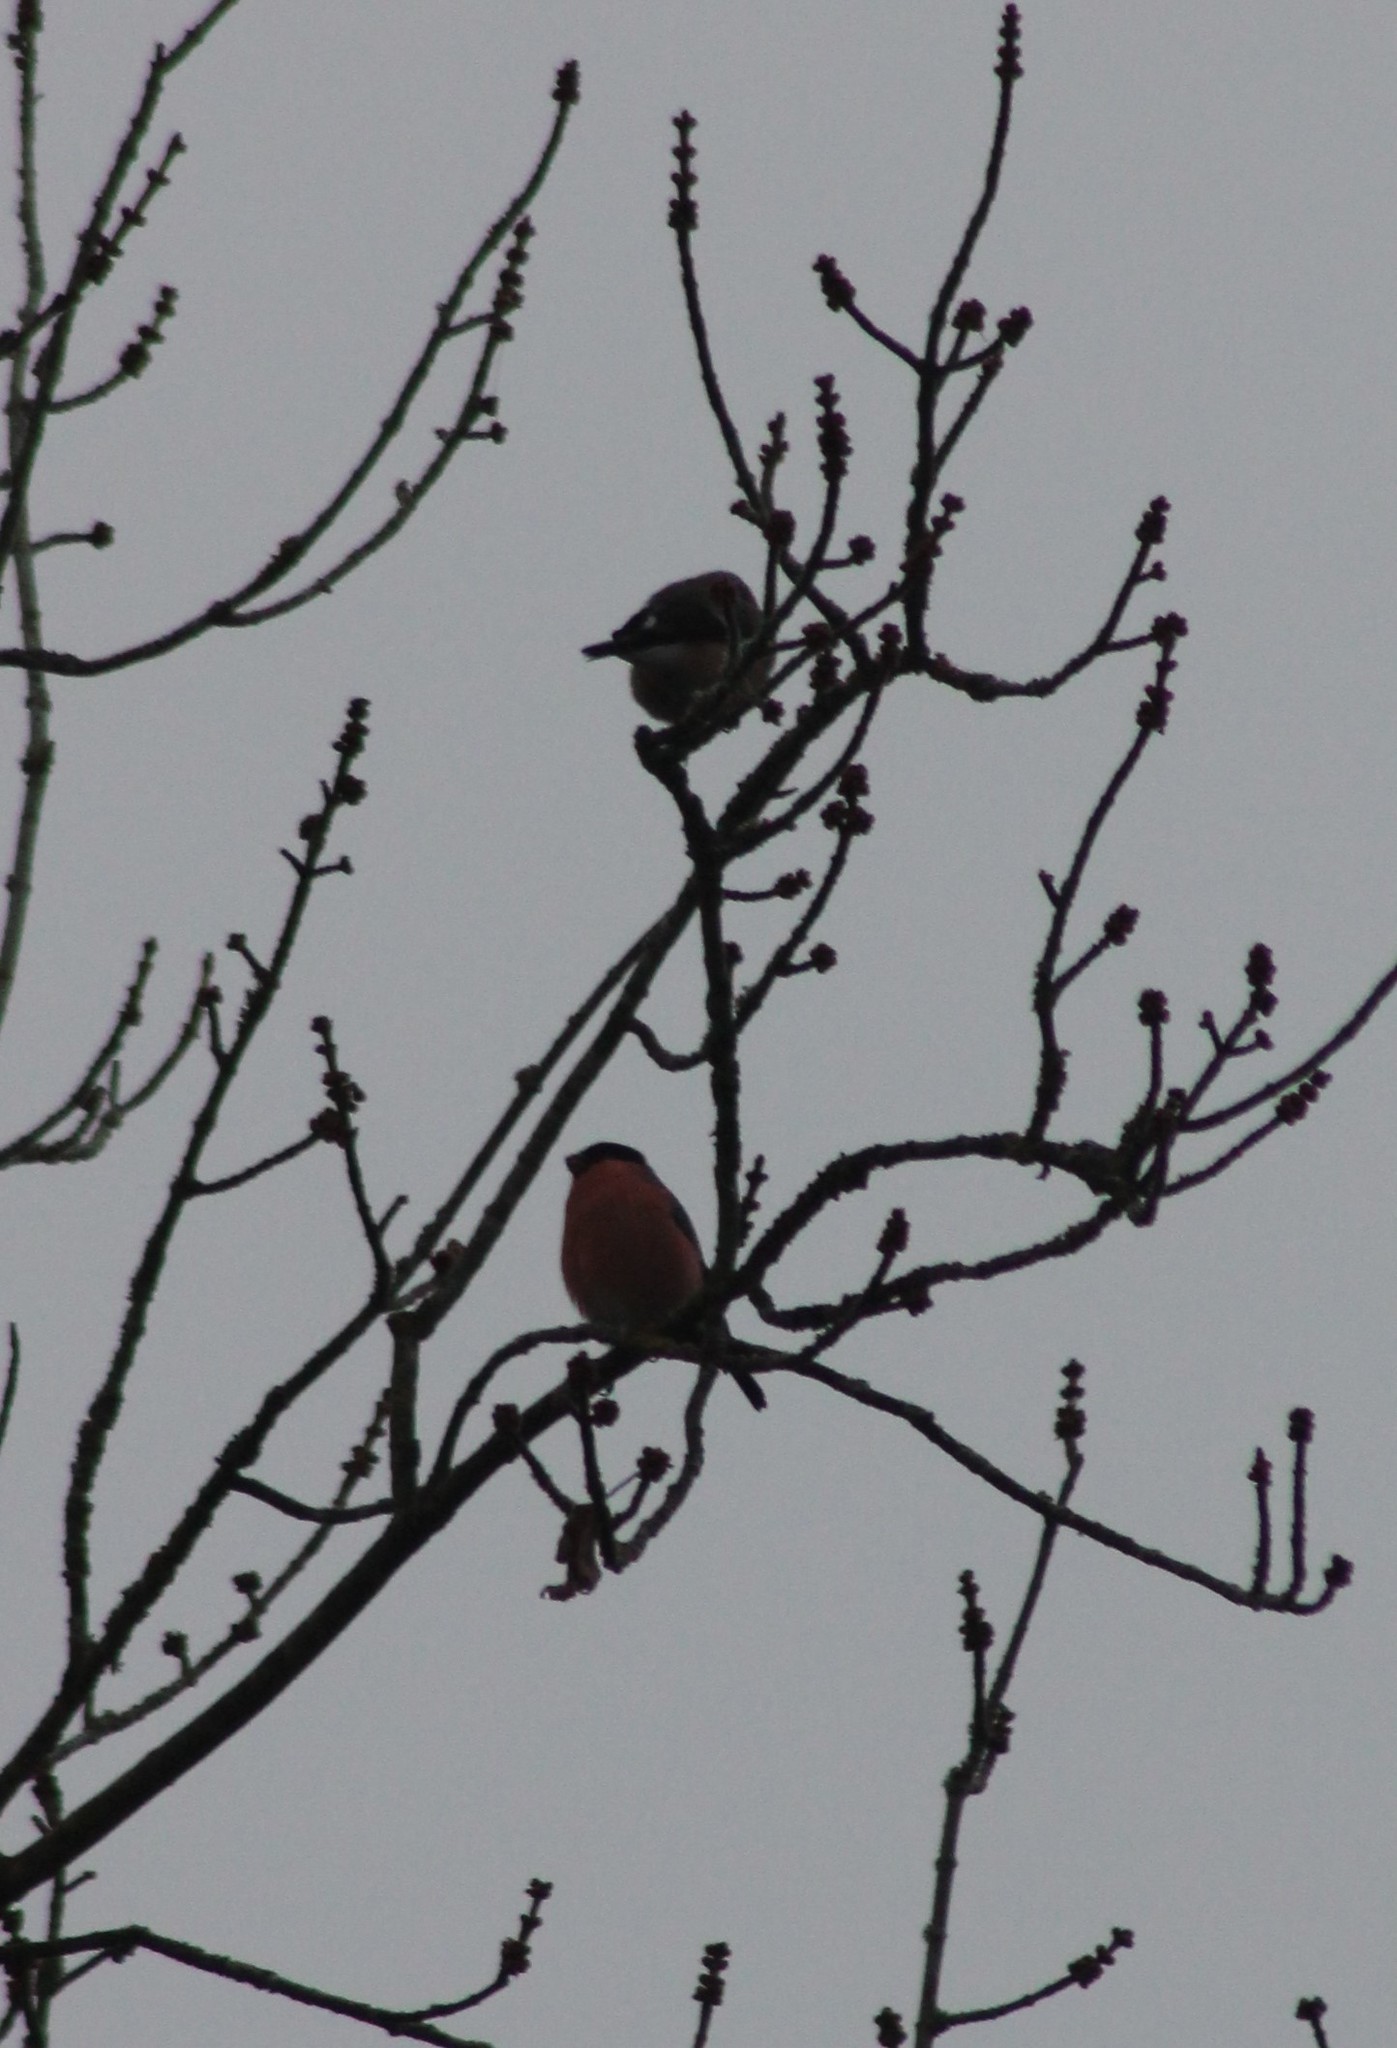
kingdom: Animalia
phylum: Chordata
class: Aves
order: Passeriformes
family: Fringillidae
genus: Pyrrhula
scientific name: Pyrrhula pyrrhula
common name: Eurasian bullfinch
